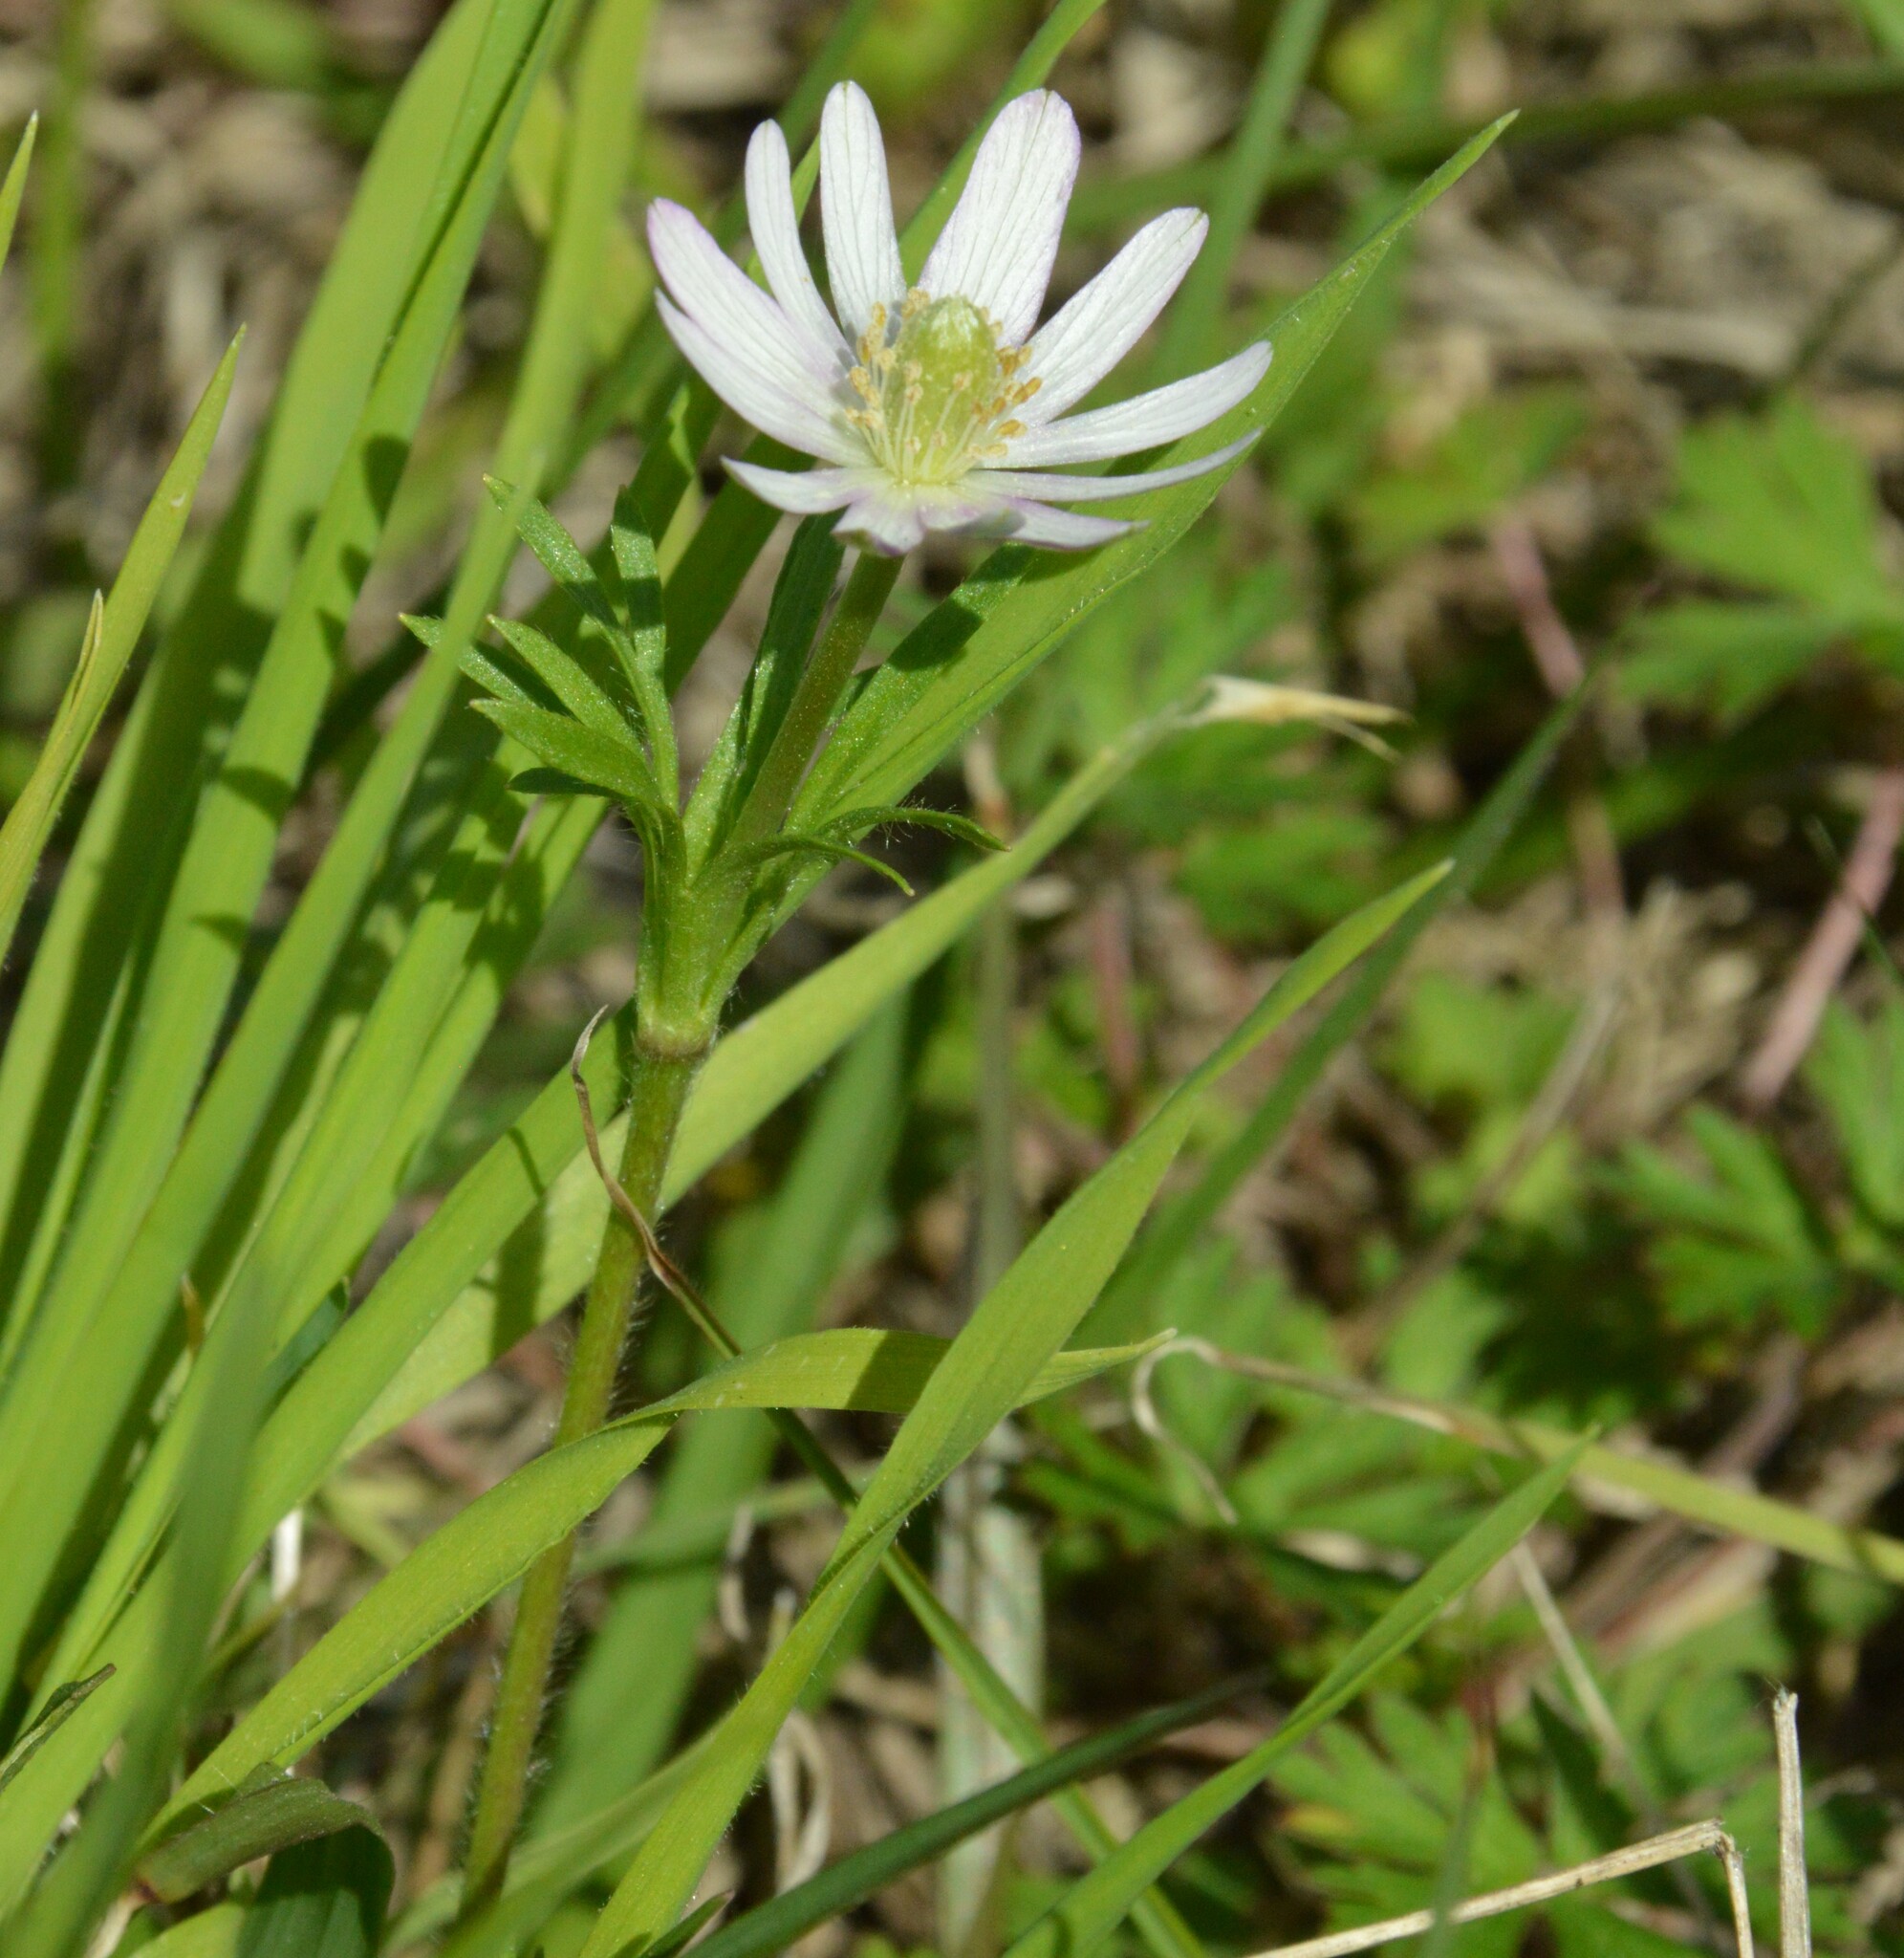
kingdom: Plantae
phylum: Tracheophyta
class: Magnoliopsida
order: Ranunculales
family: Ranunculaceae
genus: Anemone
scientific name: Anemone berlandieri
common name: Ten-petal anemone
